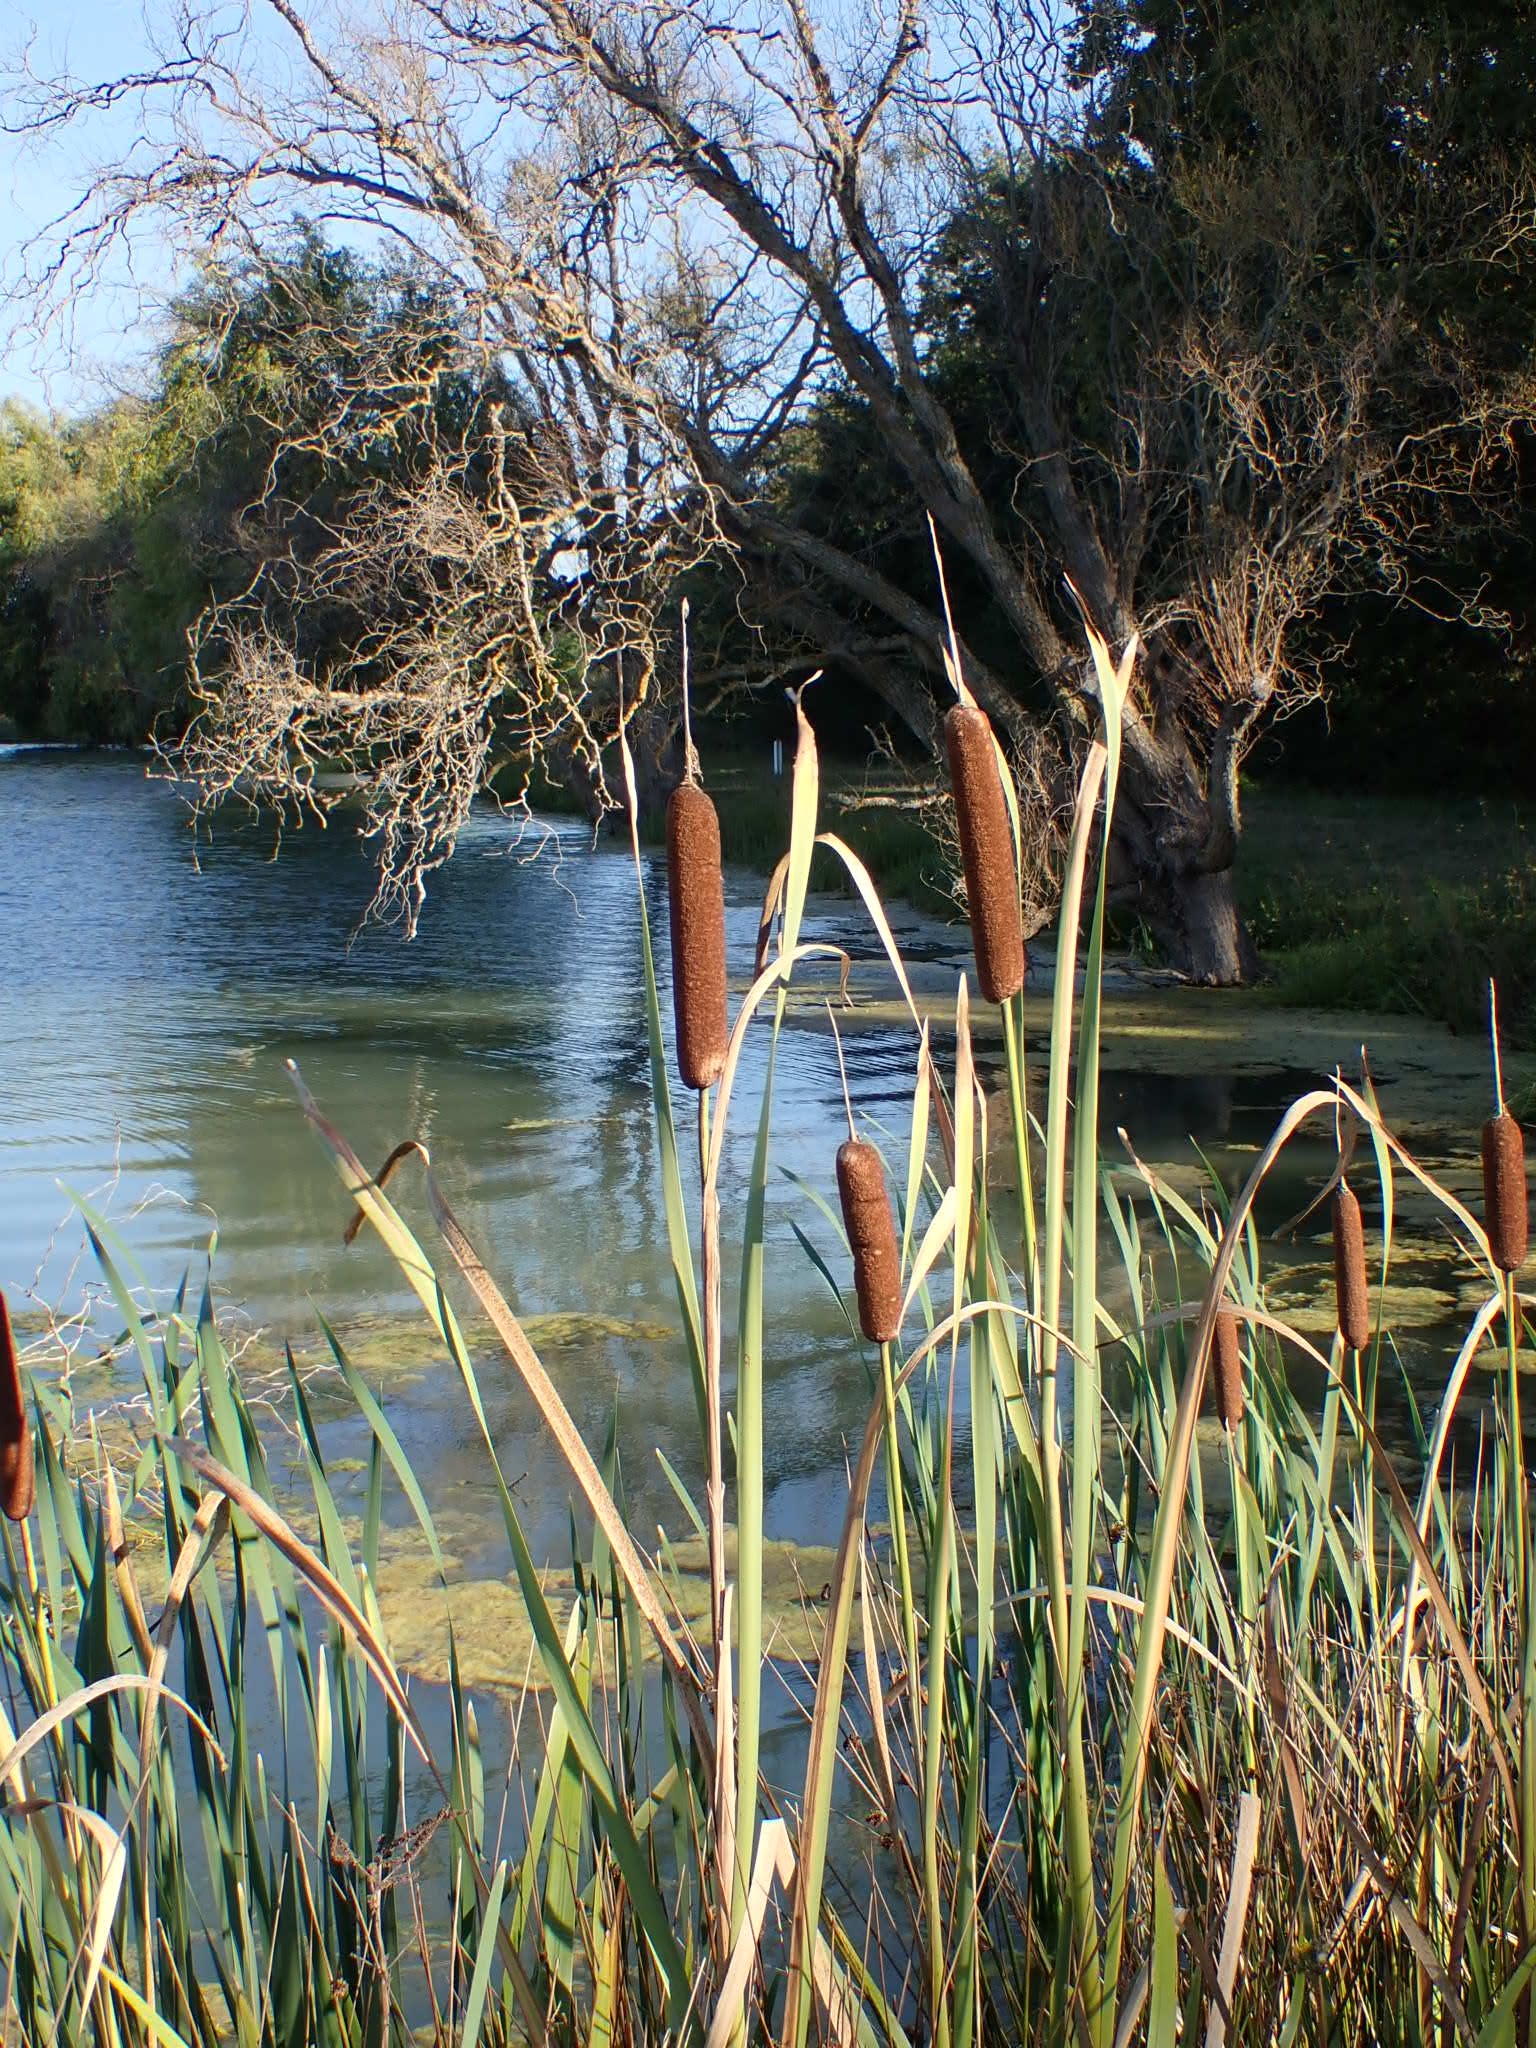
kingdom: Plantae
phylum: Tracheophyta
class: Liliopsida
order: Poales
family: Typhaceae
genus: Typha
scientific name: Typha latifolia
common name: Broadleaf cattail
